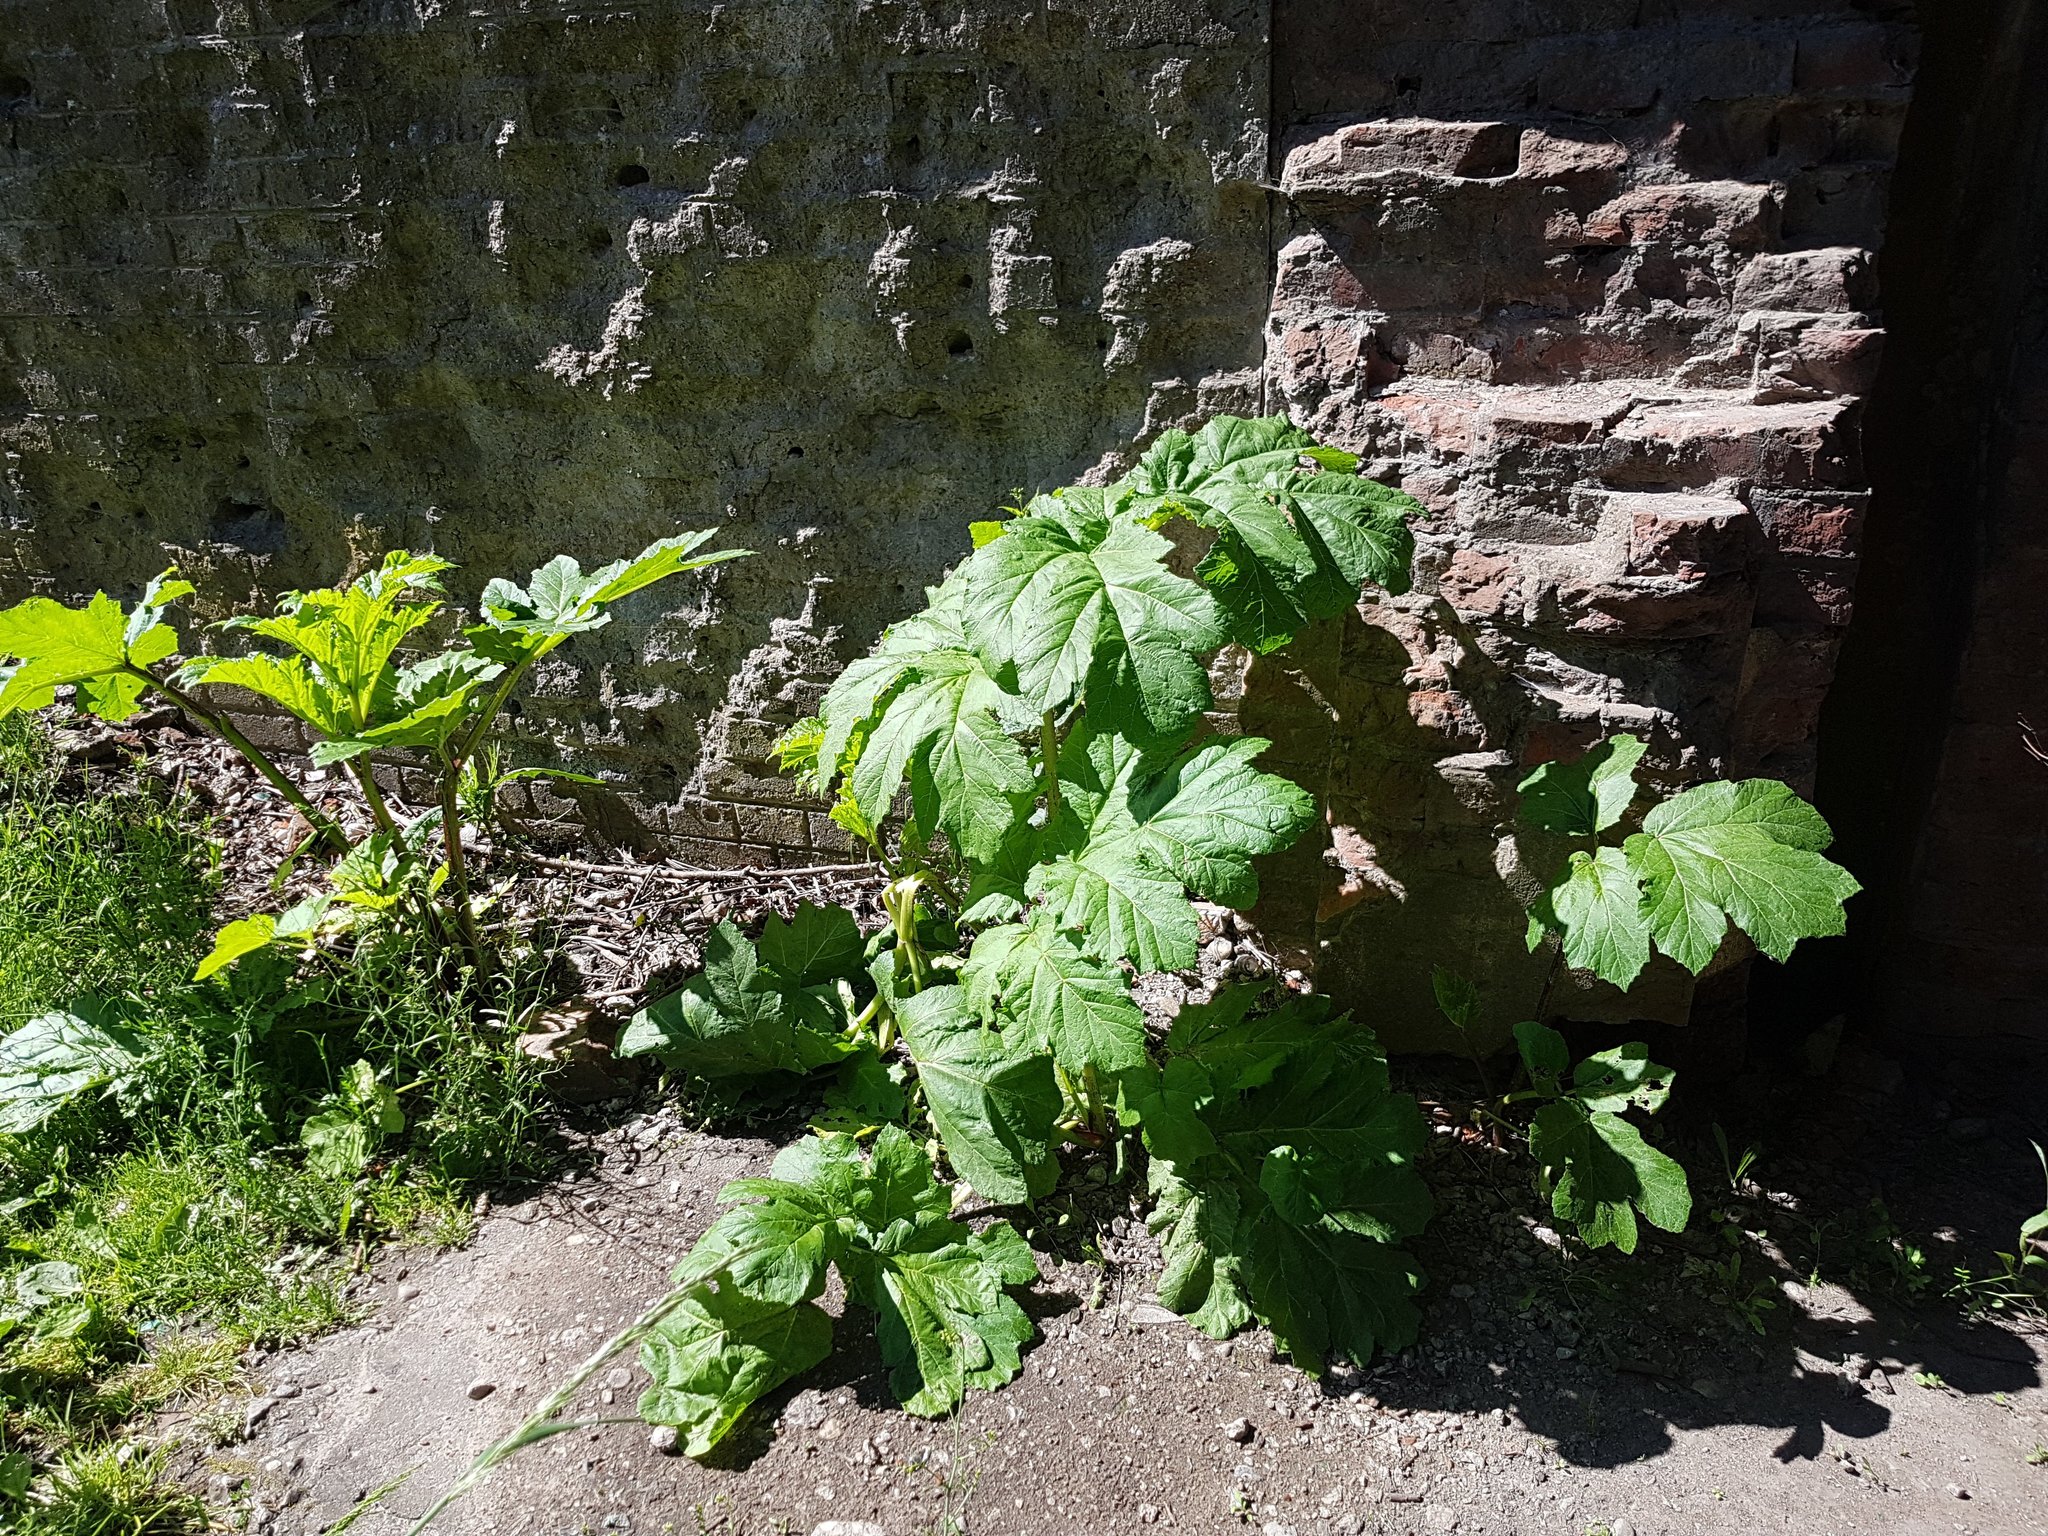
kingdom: Plantae
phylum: Tracheophyta
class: Magnoliopsida
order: Apiales
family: Apiaceae
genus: Heracleum
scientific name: Heracleum sosnowskyi
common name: Sosnowsky's hogweed
